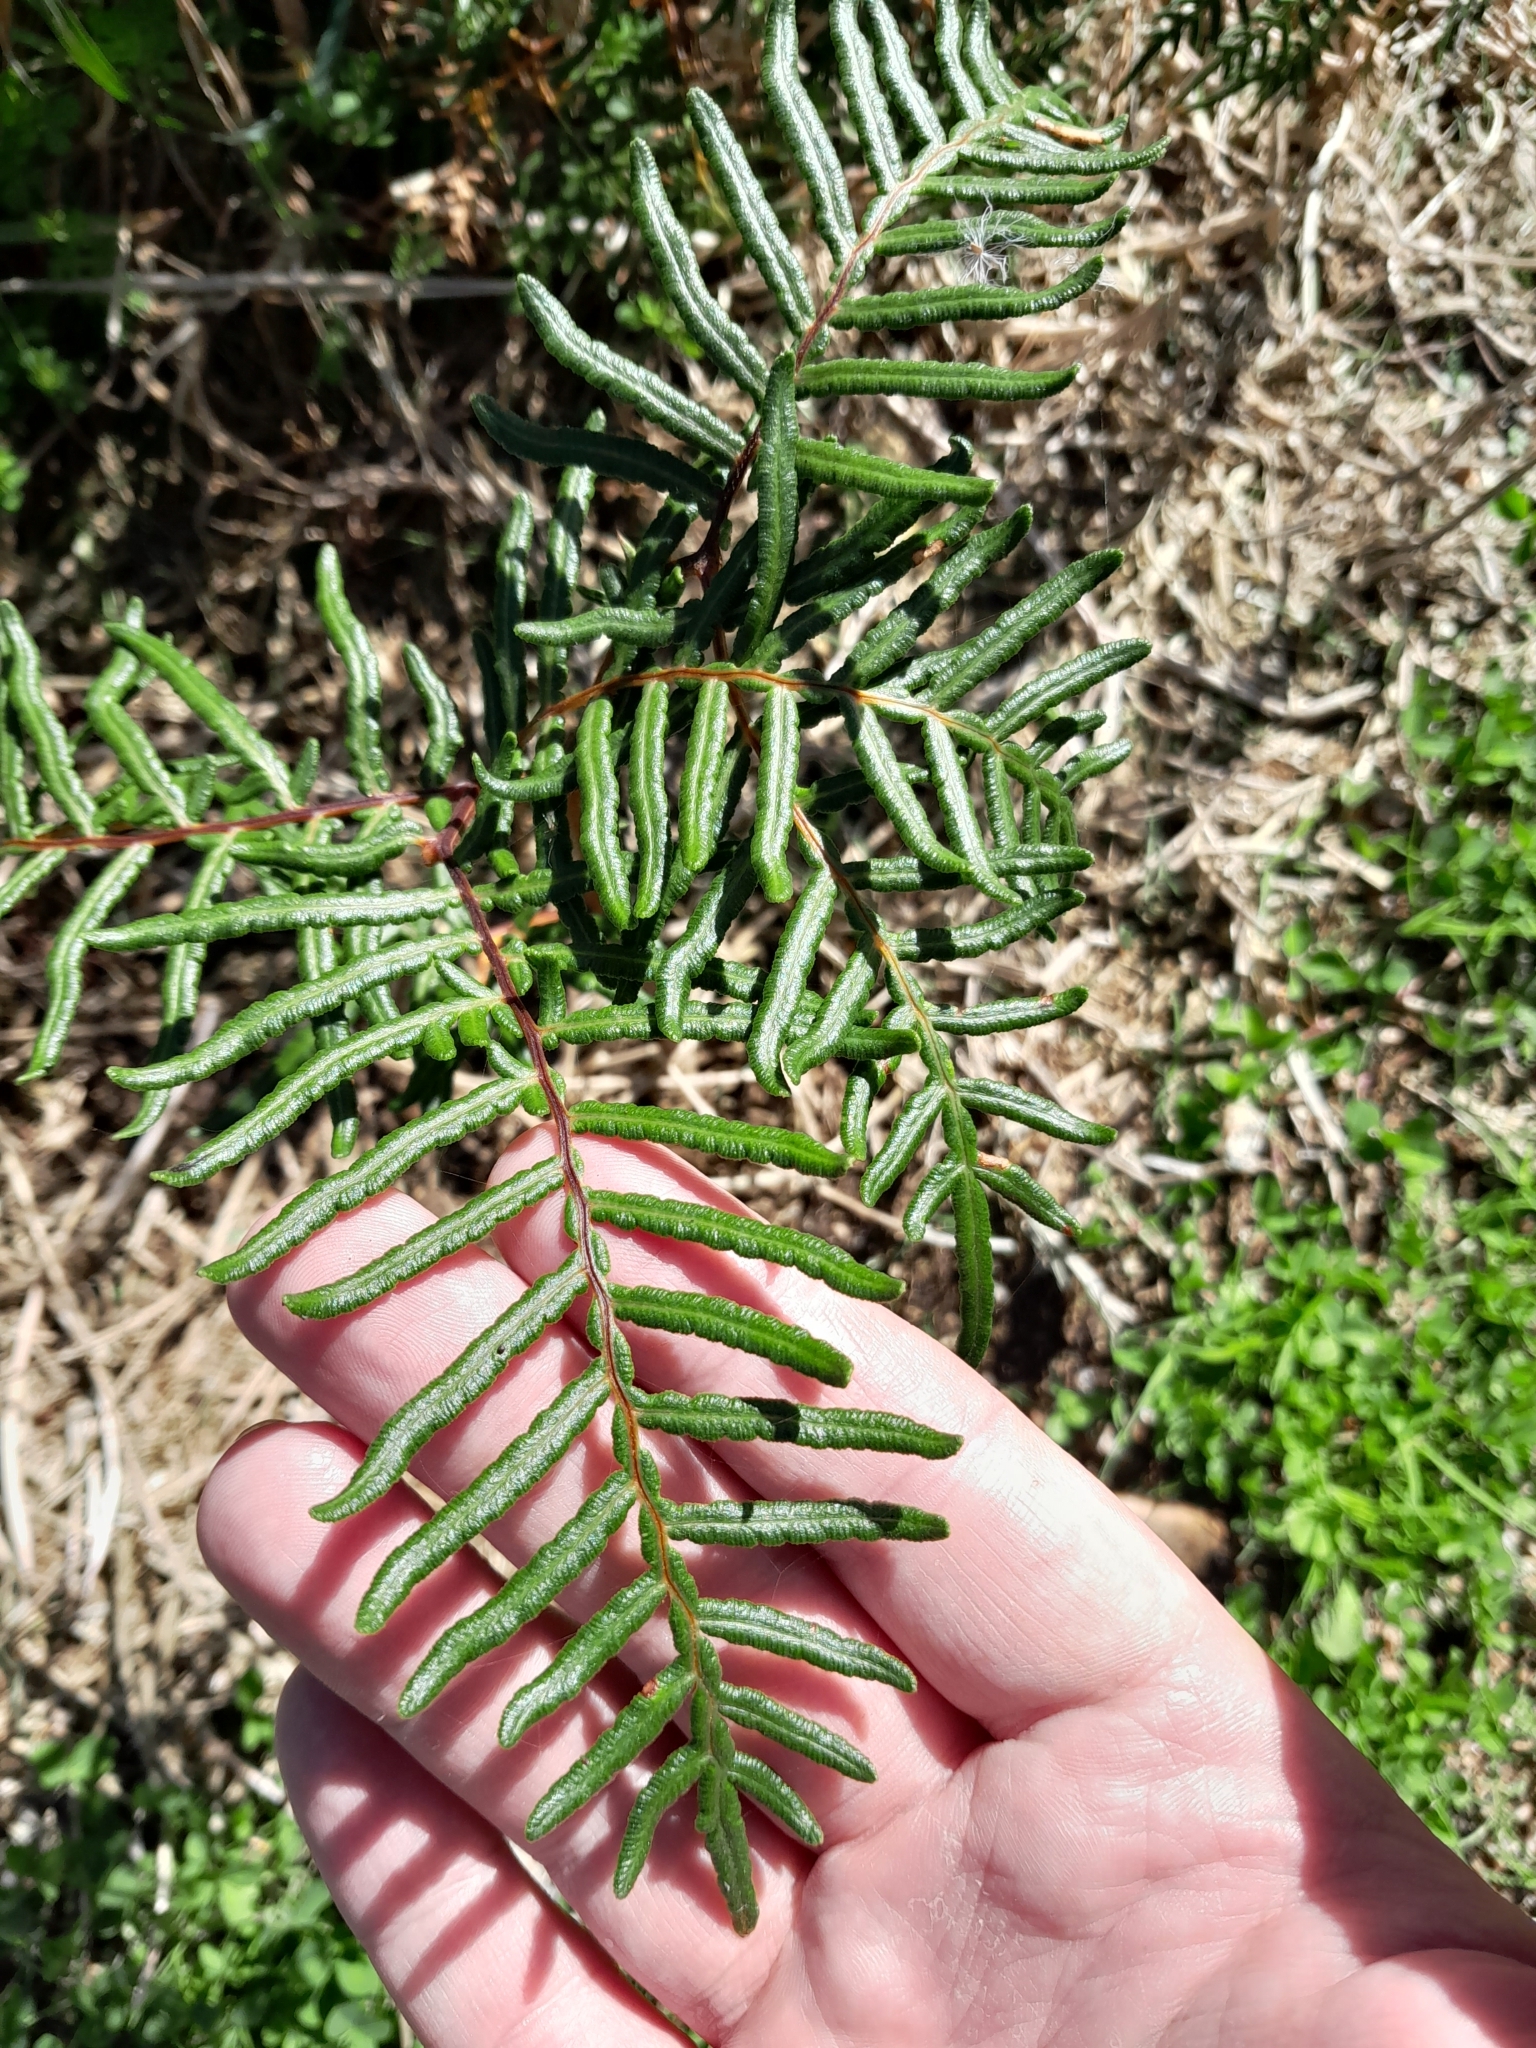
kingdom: Plantae
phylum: Tracheophyta
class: Polypodiopsida
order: Polypodiales
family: Dennstaedtiaceae
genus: Pteridium
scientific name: Pteridium esculentum
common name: Bracken fern
